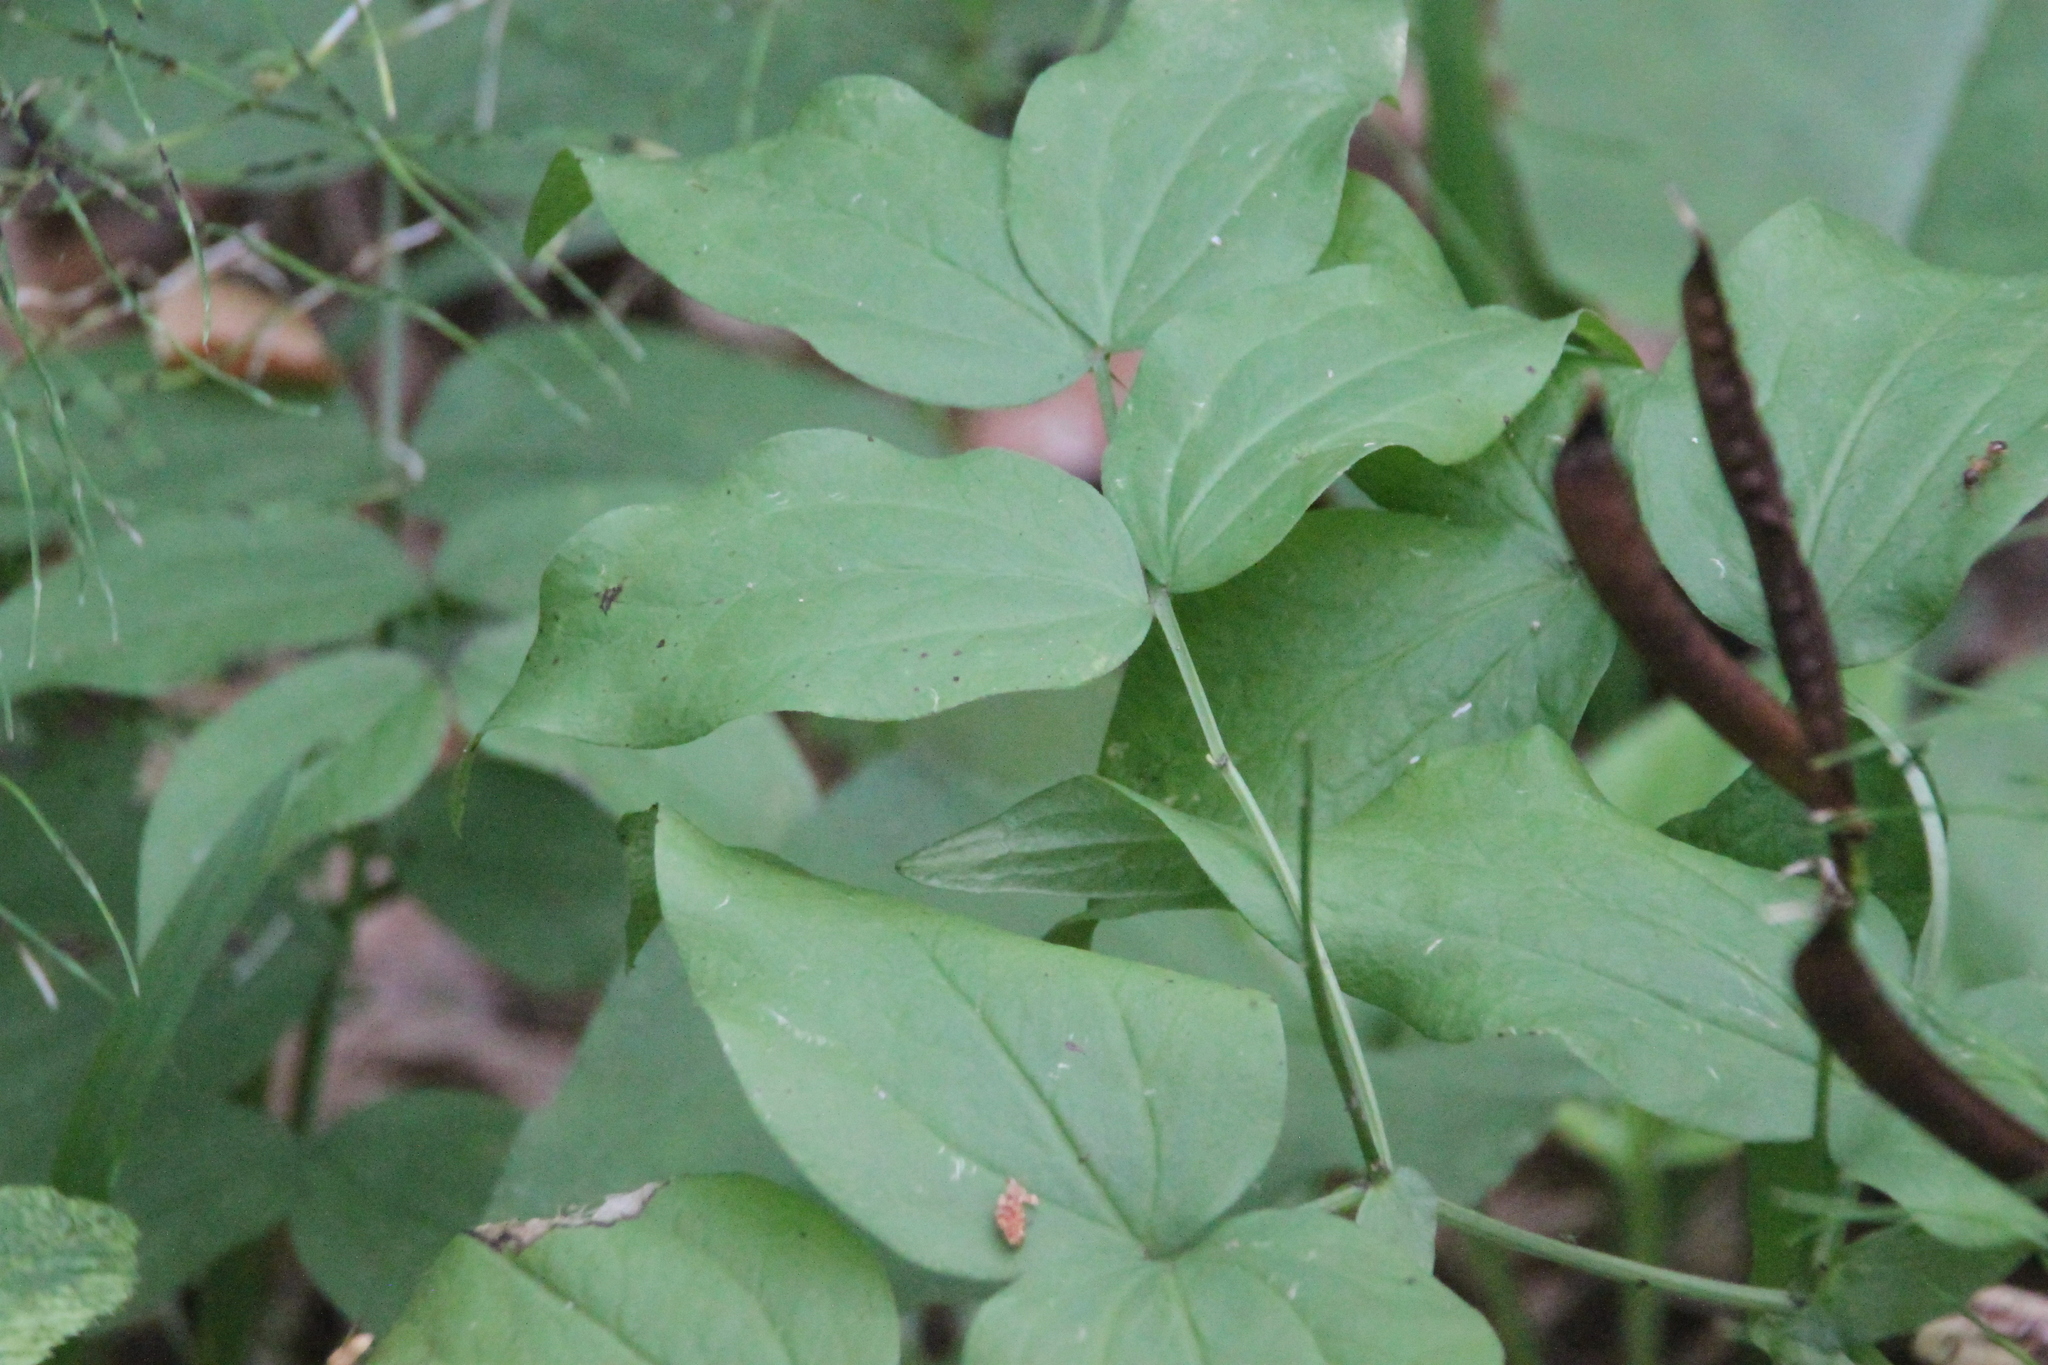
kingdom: Plantae
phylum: Tracheophyta
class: Magnoliopsida
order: Fabales
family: Fabaceae
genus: Lathyrus
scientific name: Lathyrus vernus
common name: Spring pea
